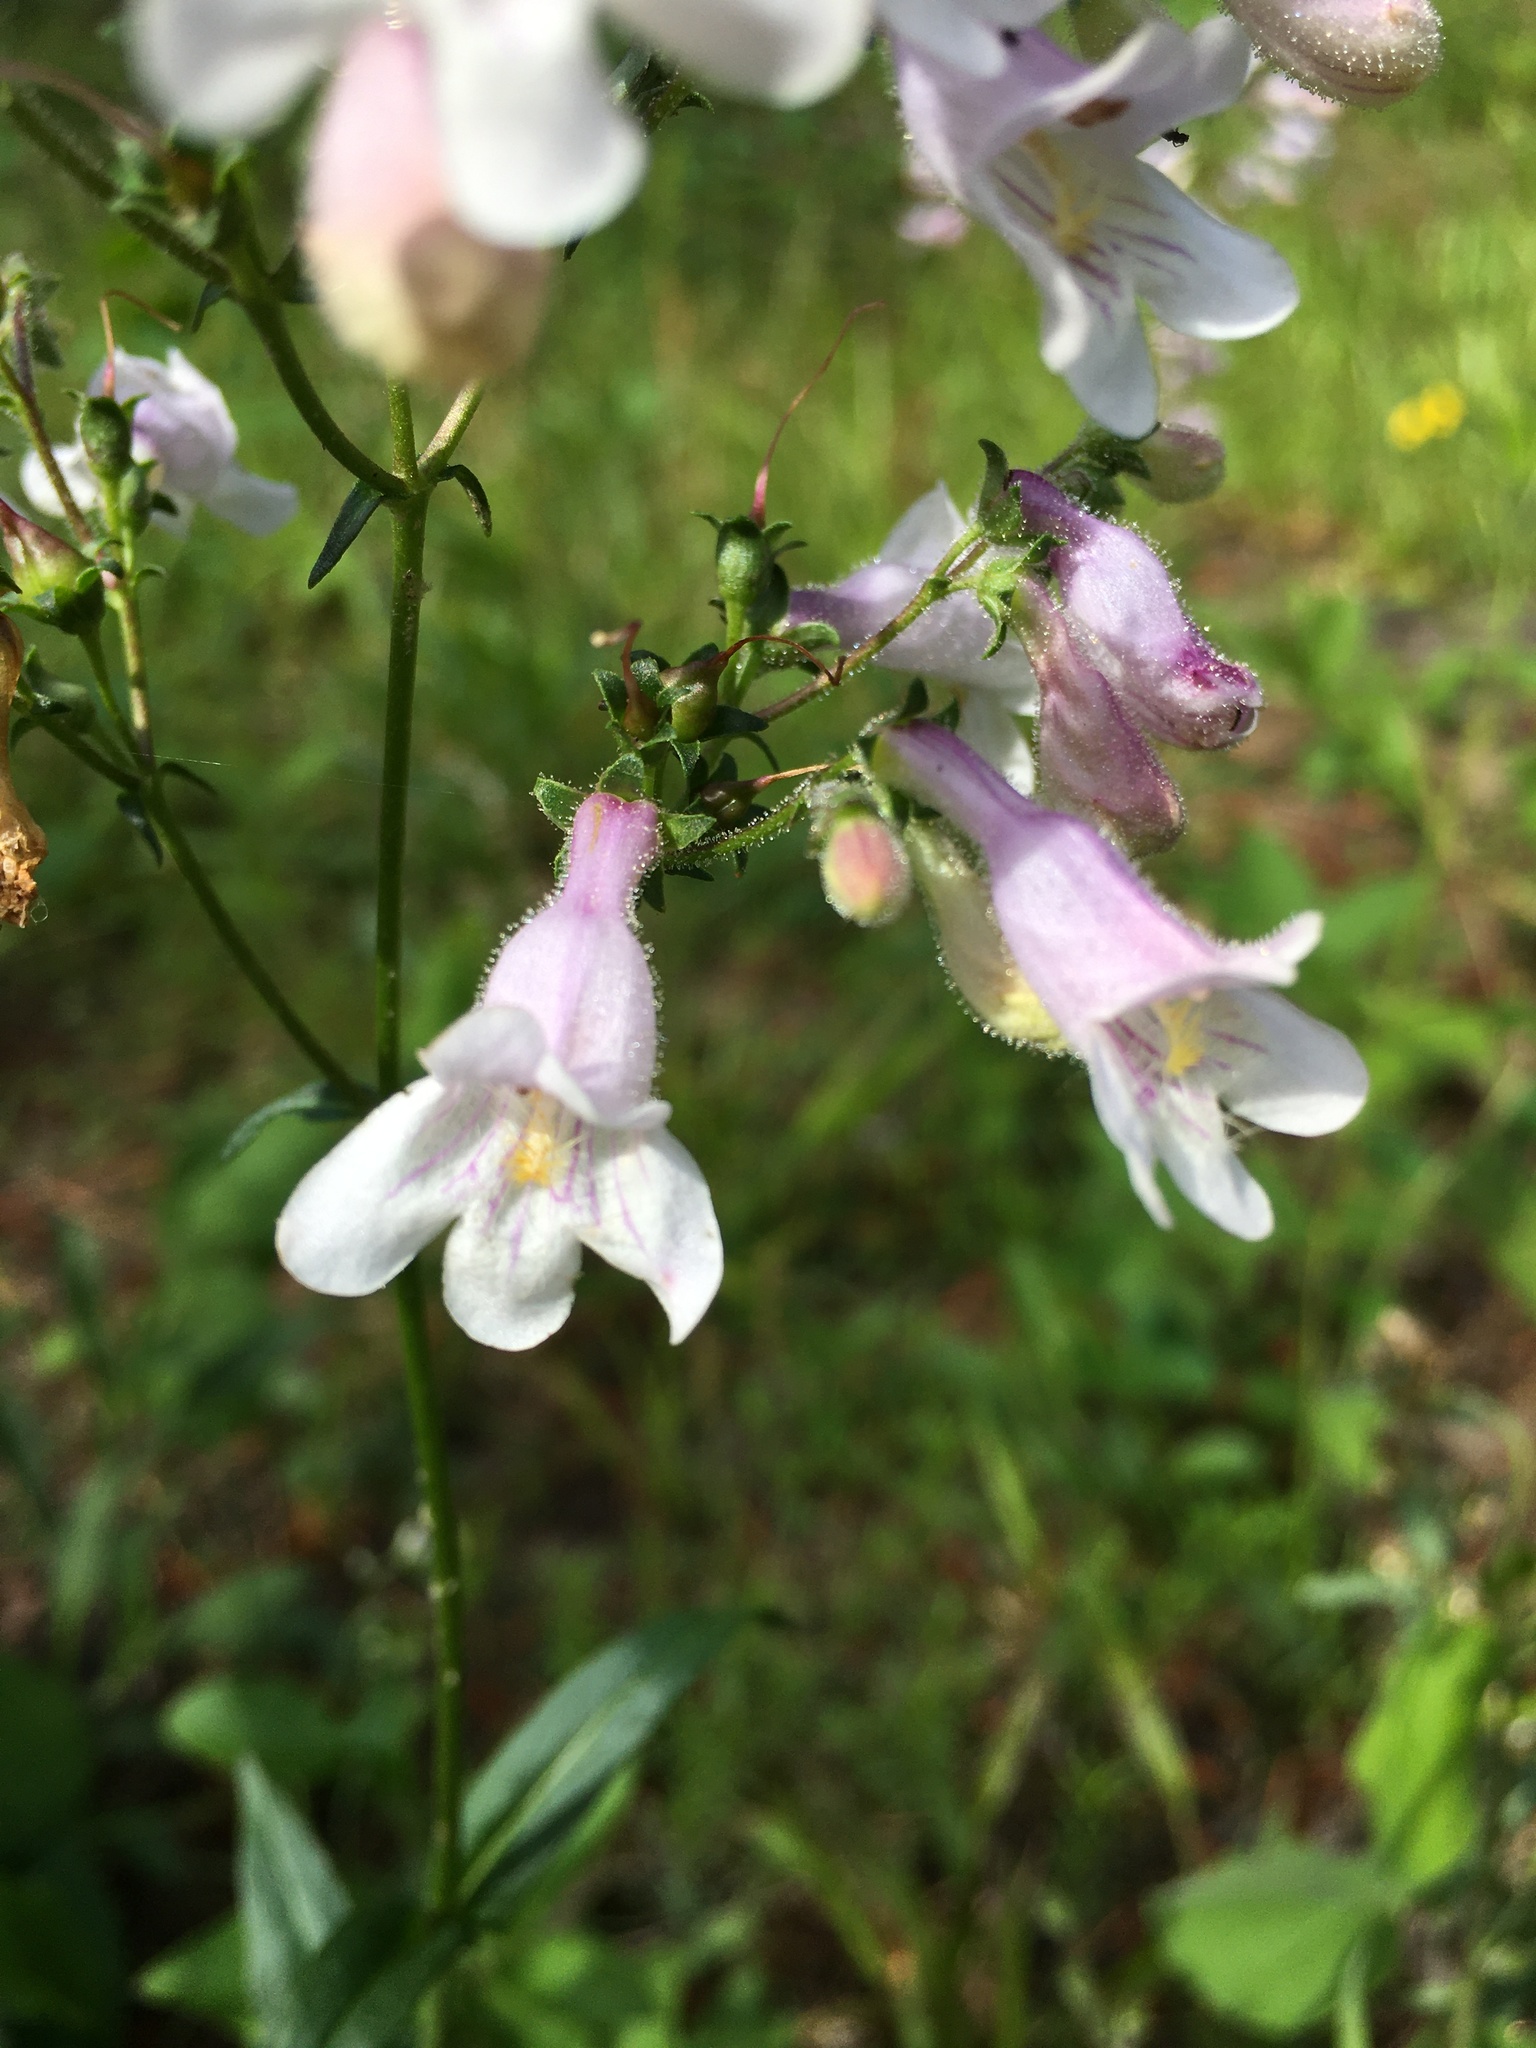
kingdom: Plantae
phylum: Tracheophyta
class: Magnoliopsida
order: Lamiales
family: Plantaginaceae
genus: Penstemon
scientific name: Penstemon laevigatus
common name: Eastern beardtongue
